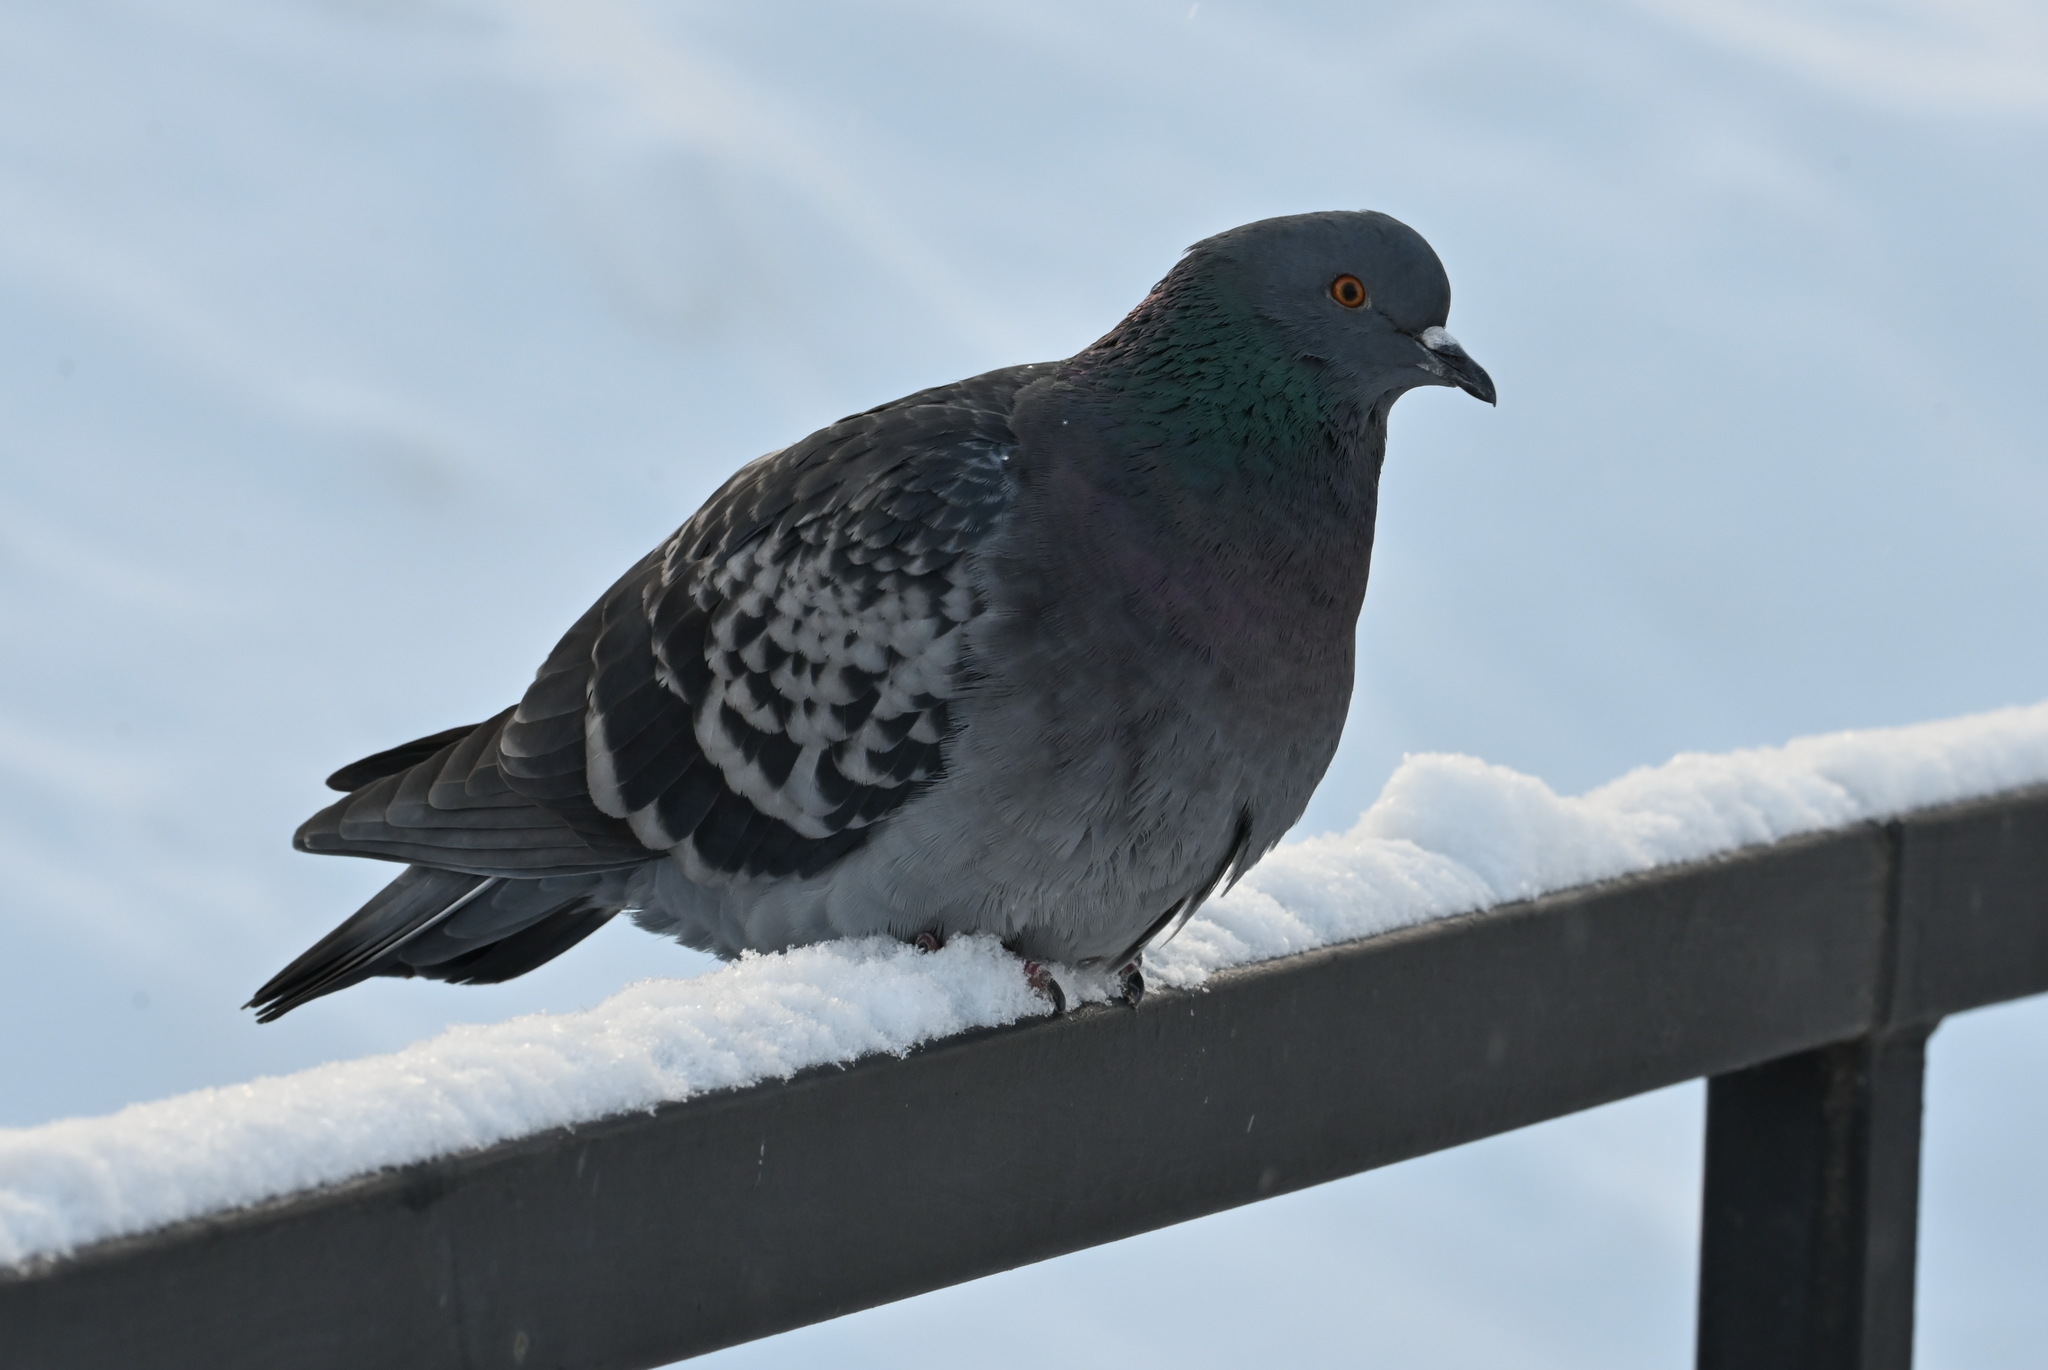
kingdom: Animalia
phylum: Chordata
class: Aves
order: Columbiformes
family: Columbidae
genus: Columba
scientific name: Columba livia
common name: Rock pigeon
